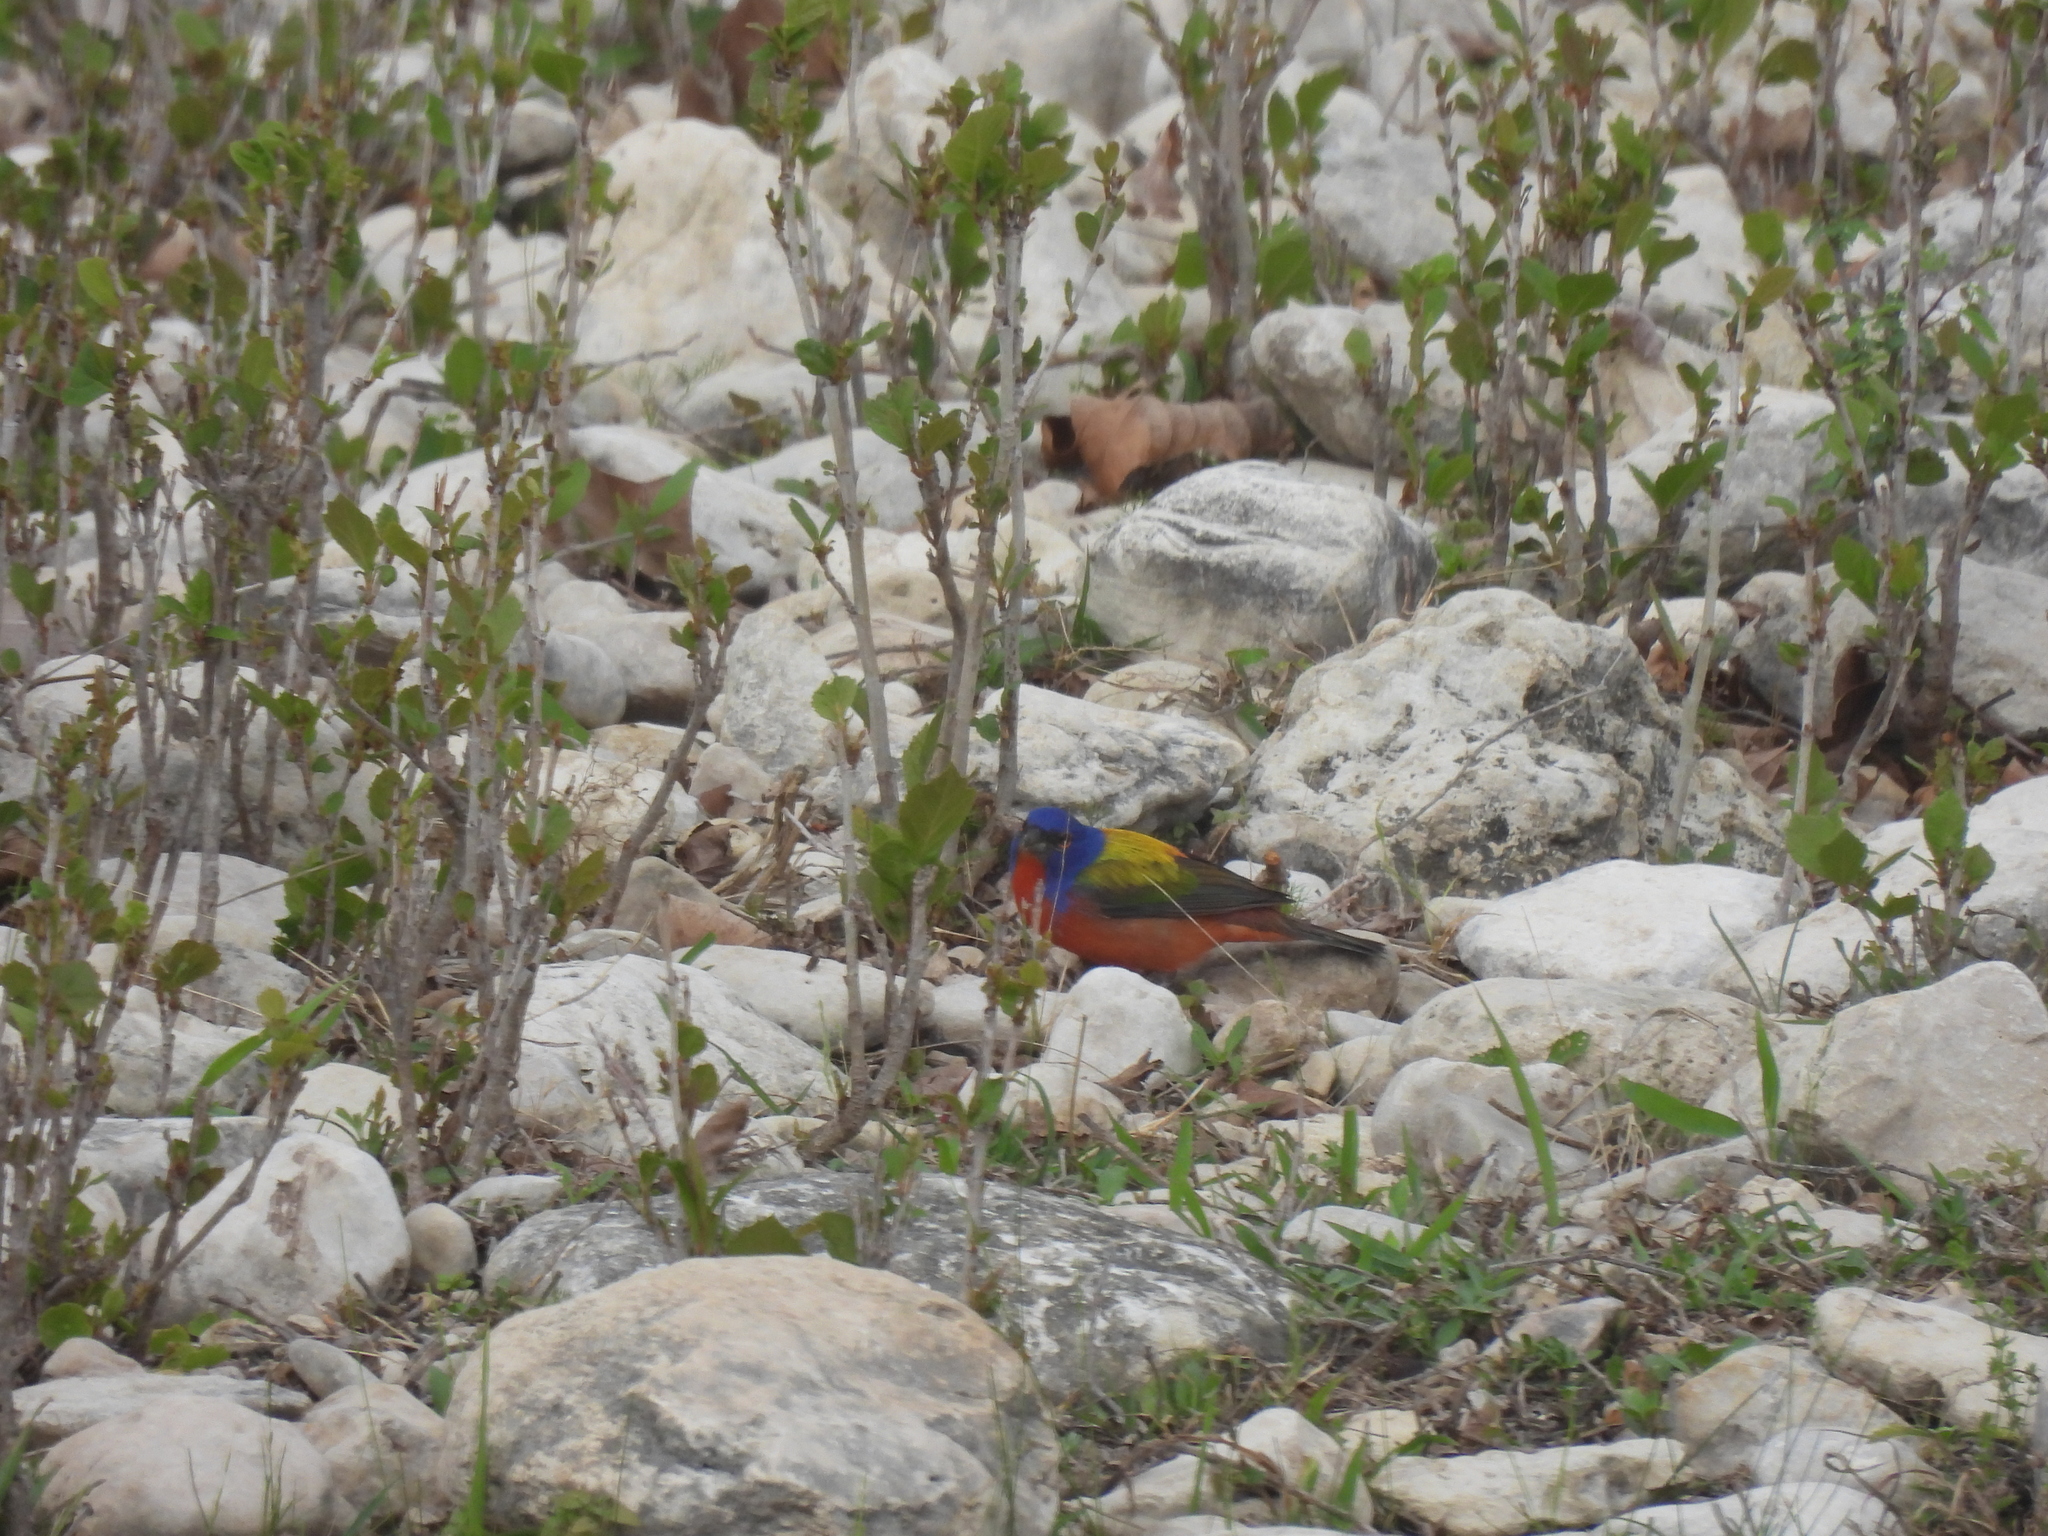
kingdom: Animalia
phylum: Chordata
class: Aves
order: Passeriformes
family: Cardinalidae
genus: Passerina
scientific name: Passerina ciris
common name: Painted bunting
